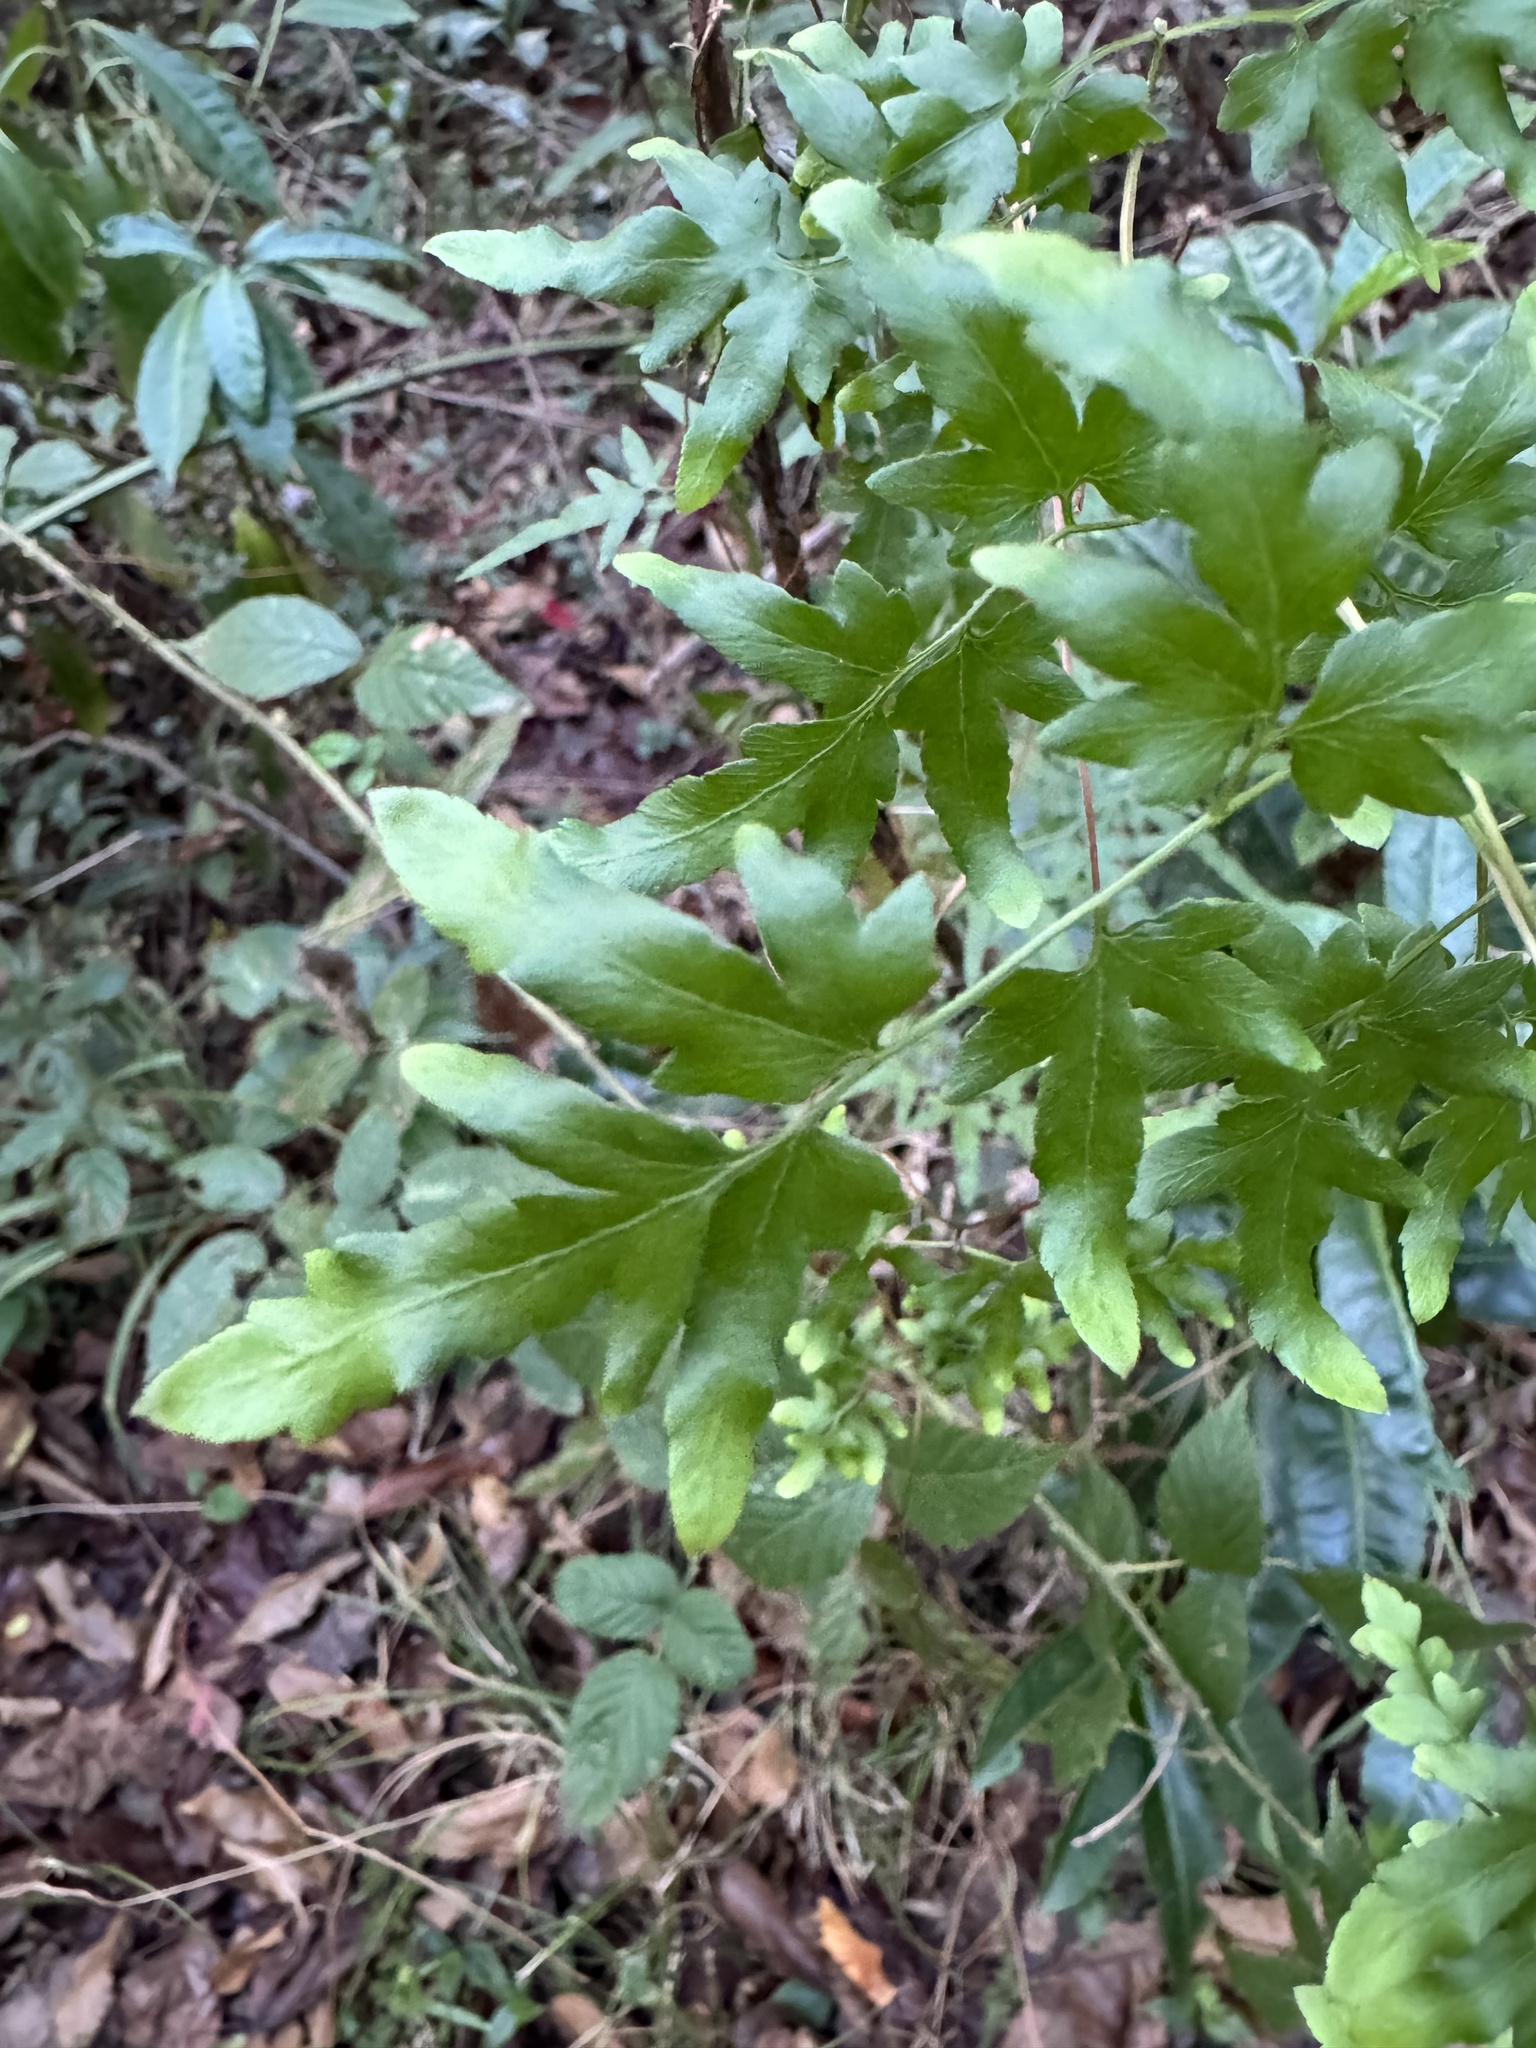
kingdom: Plantae
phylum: Tracheophyta
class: Polypodiopsida
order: Schizaeales
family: Lygodiaceae
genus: Lygodium
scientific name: Lygodium japonicum
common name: Japanese climbing fern
